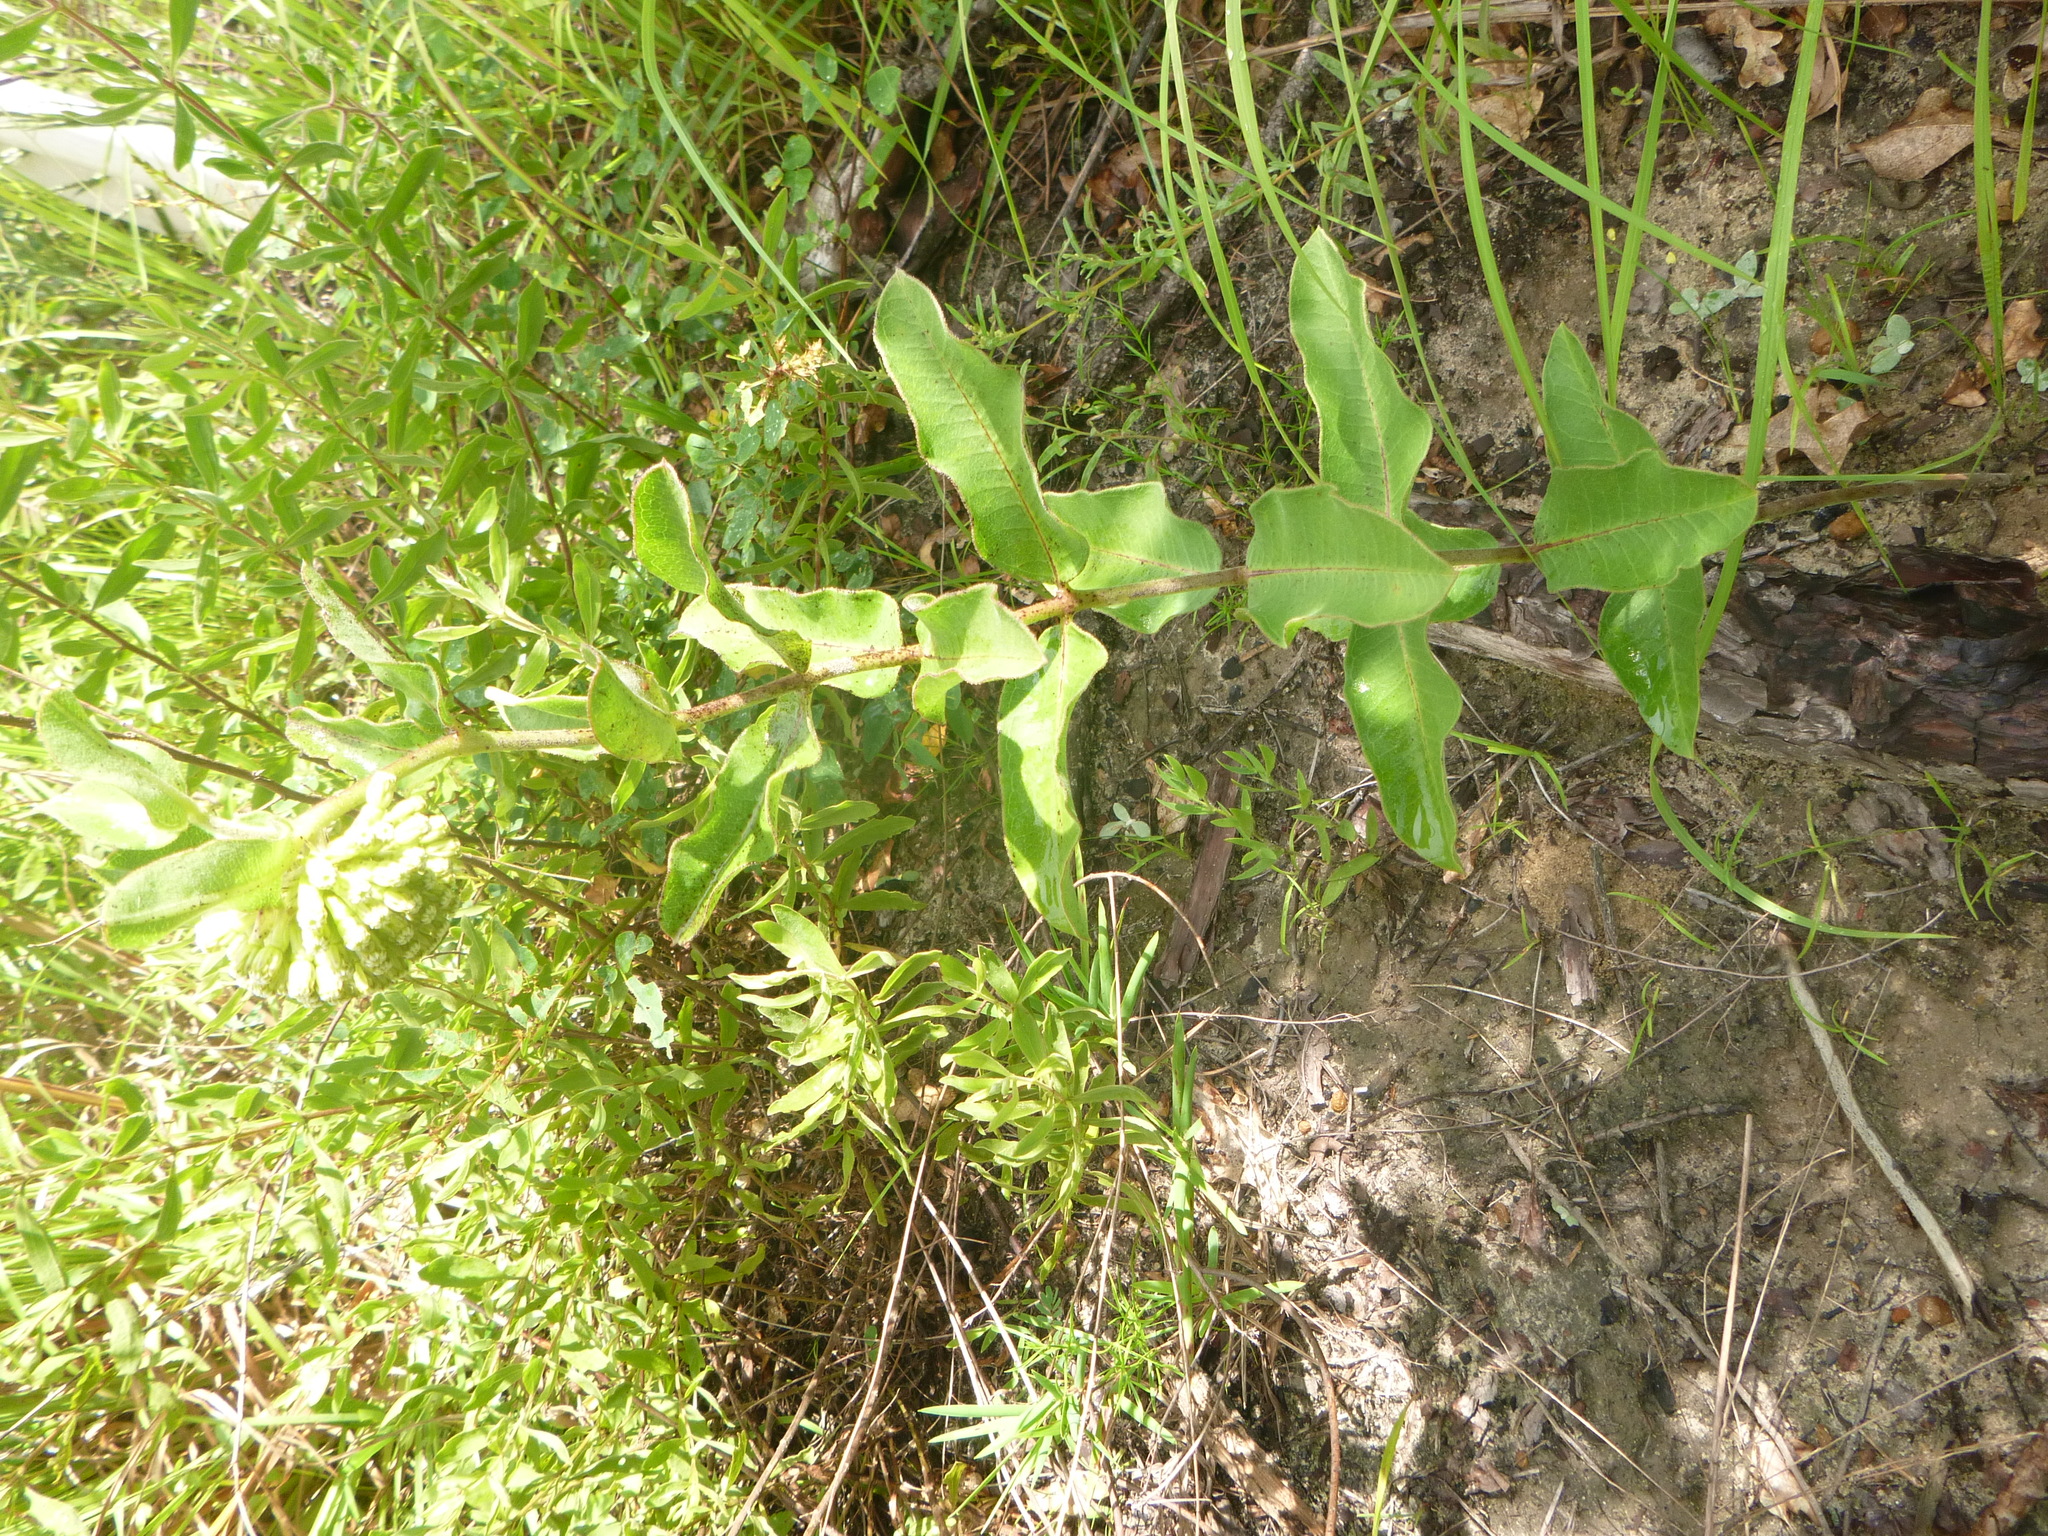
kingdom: Plantae
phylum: Tracheophyta
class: Magnoliopsida
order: Gentianales
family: Apocynaceae
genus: Asclepias
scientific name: Asclepias viridiflora
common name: Green comet milkweed
